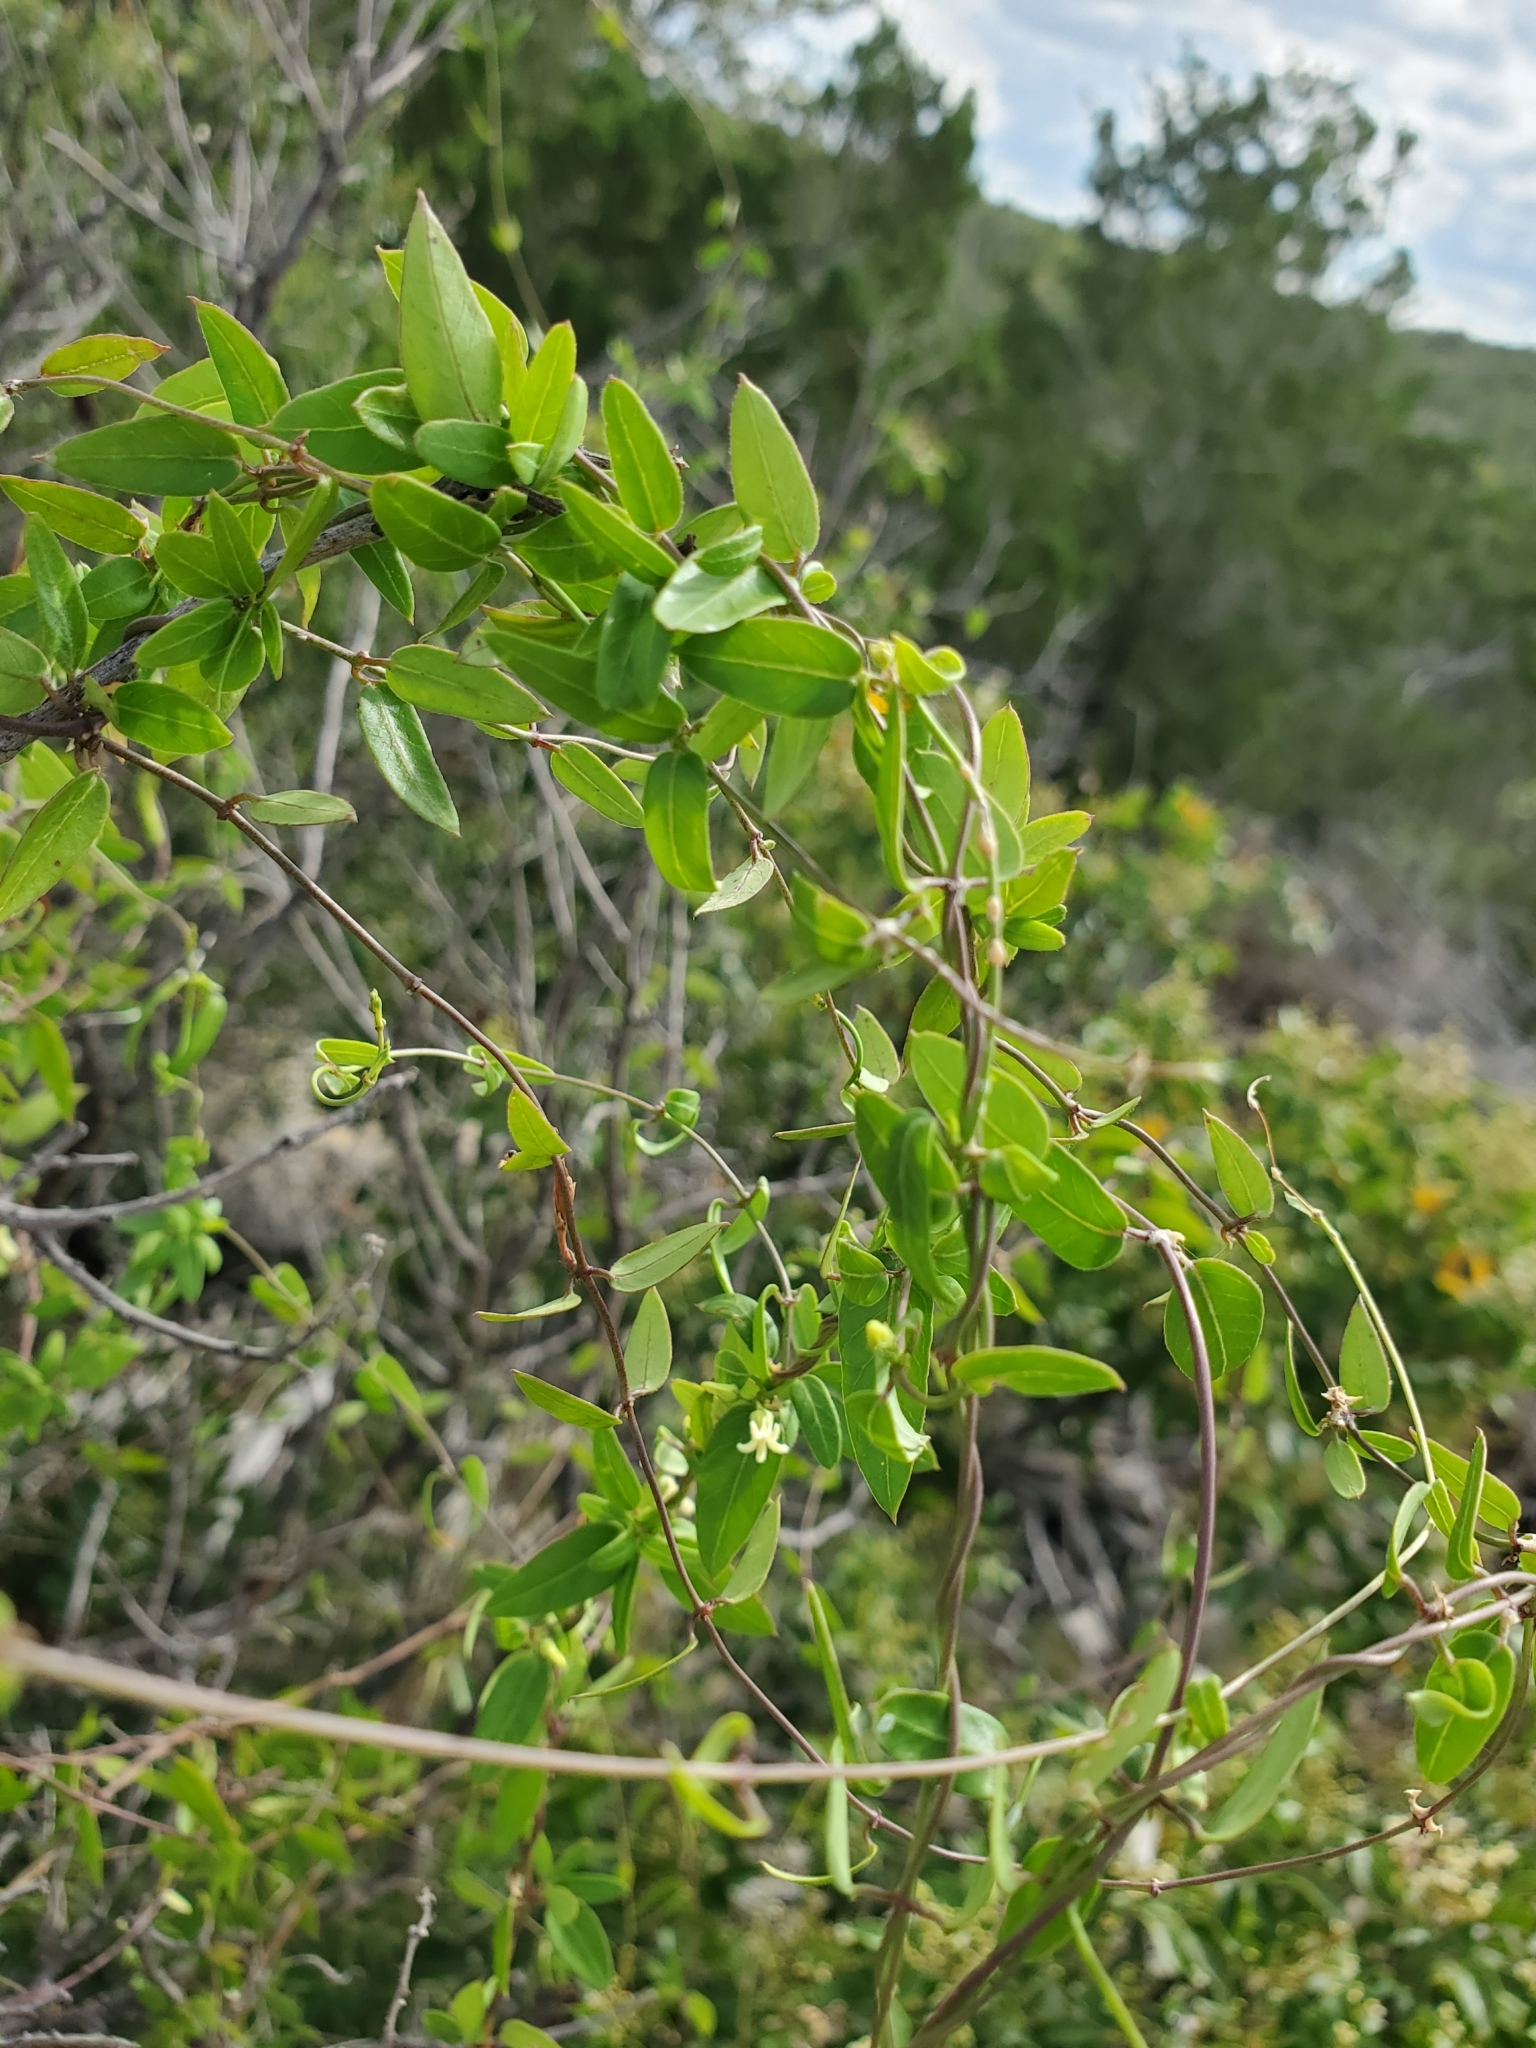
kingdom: Plantae
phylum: Tracheophyta
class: Magnoliopsida
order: Gentianales
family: Apocynaceae
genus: Metastelma
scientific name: Metastelma barbigerum
